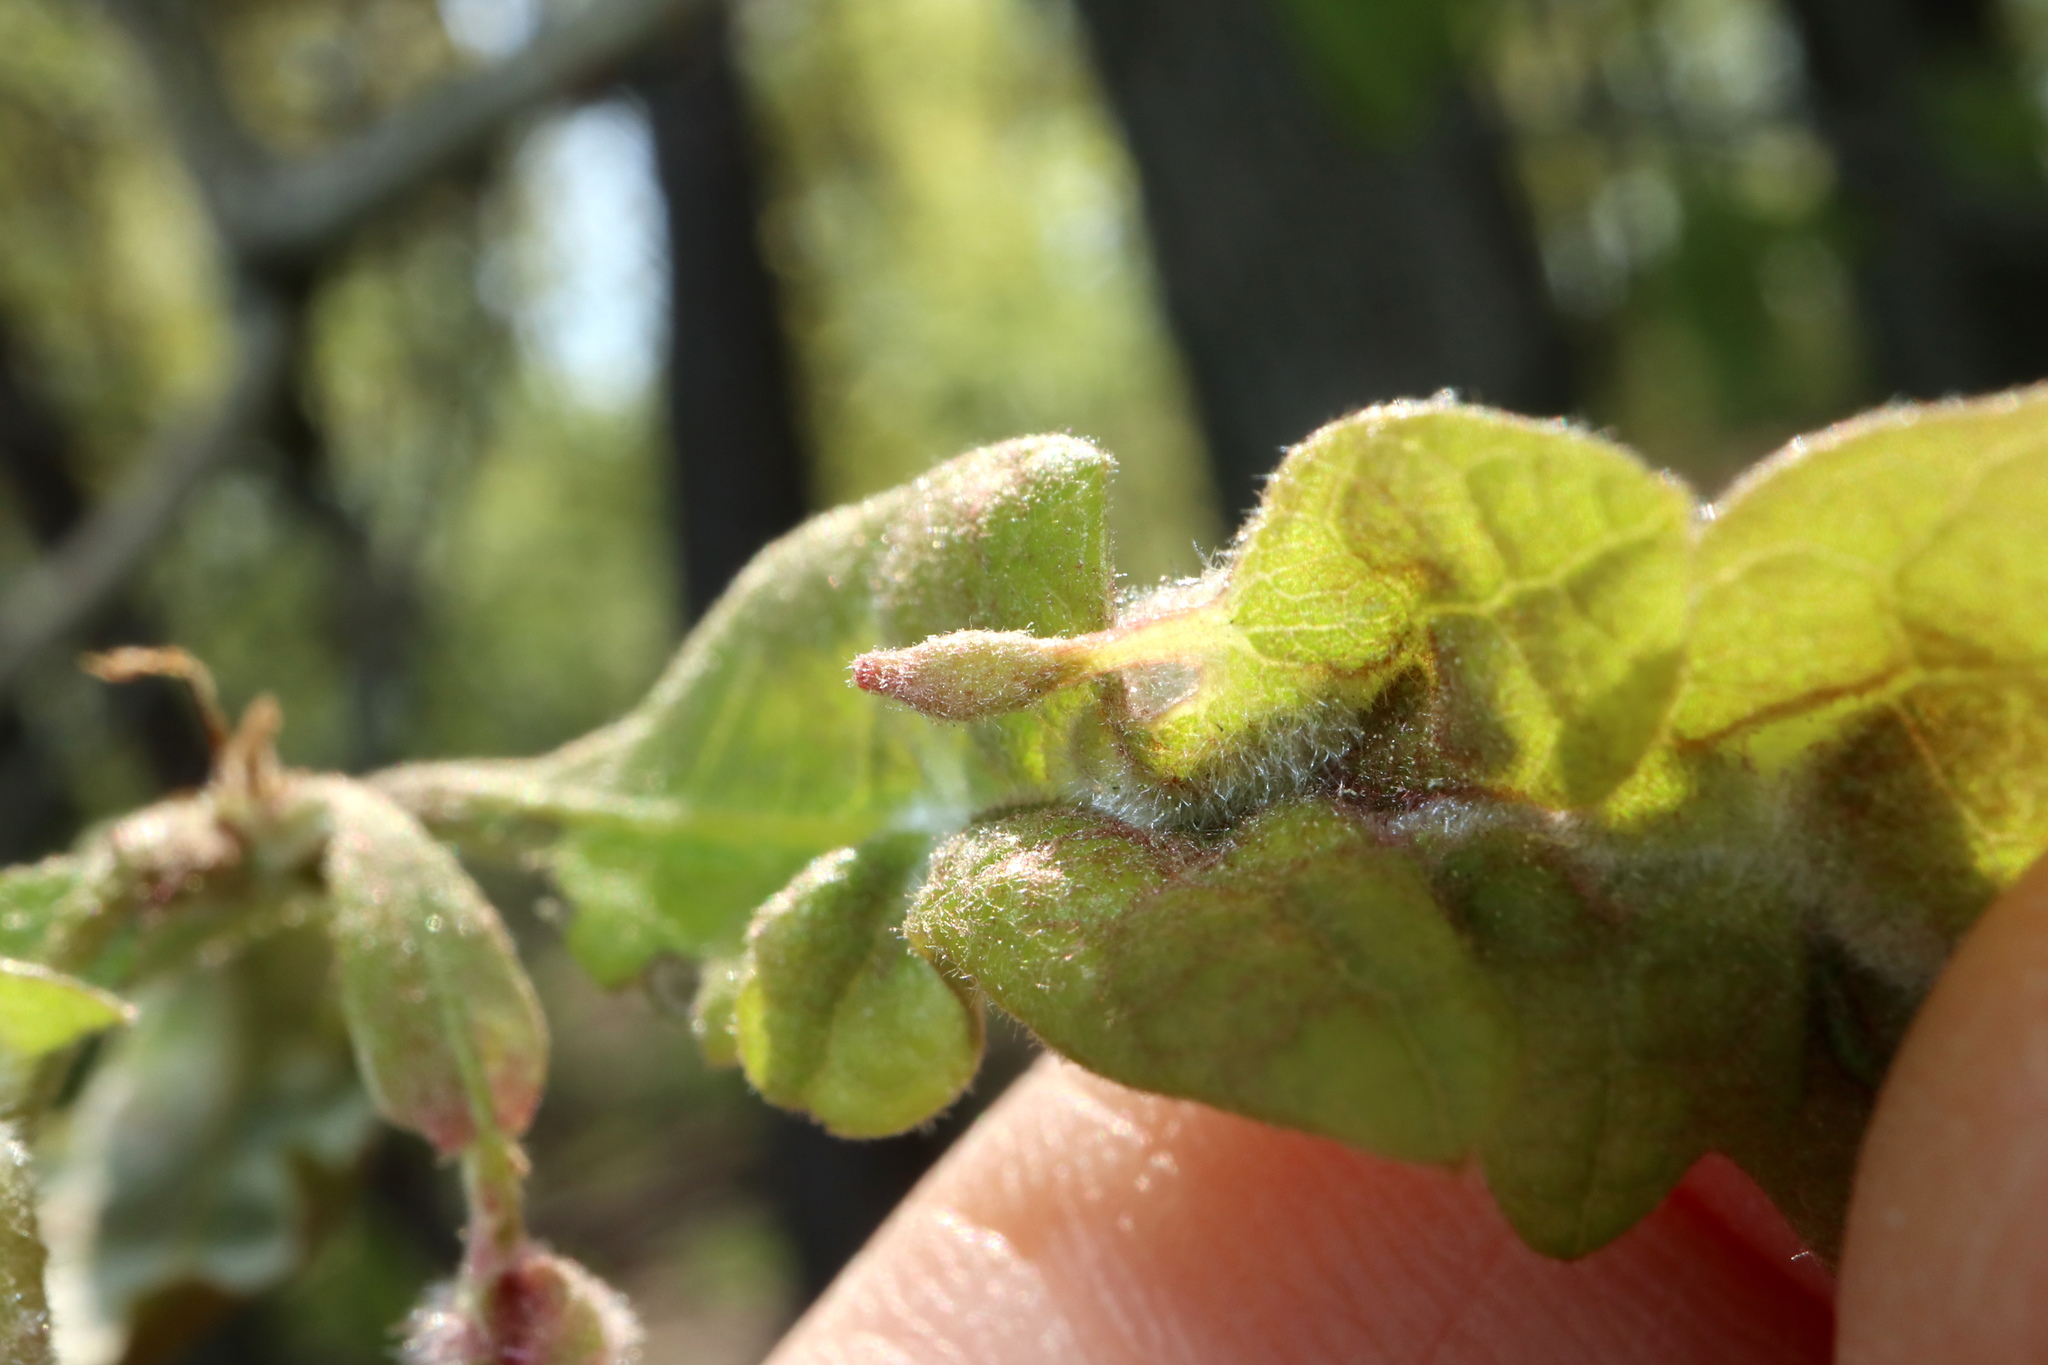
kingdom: Animalia
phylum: Arthropoda
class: Insecta
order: Hymenoptera
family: Cynipidae
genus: Andricus
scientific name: Andricus
